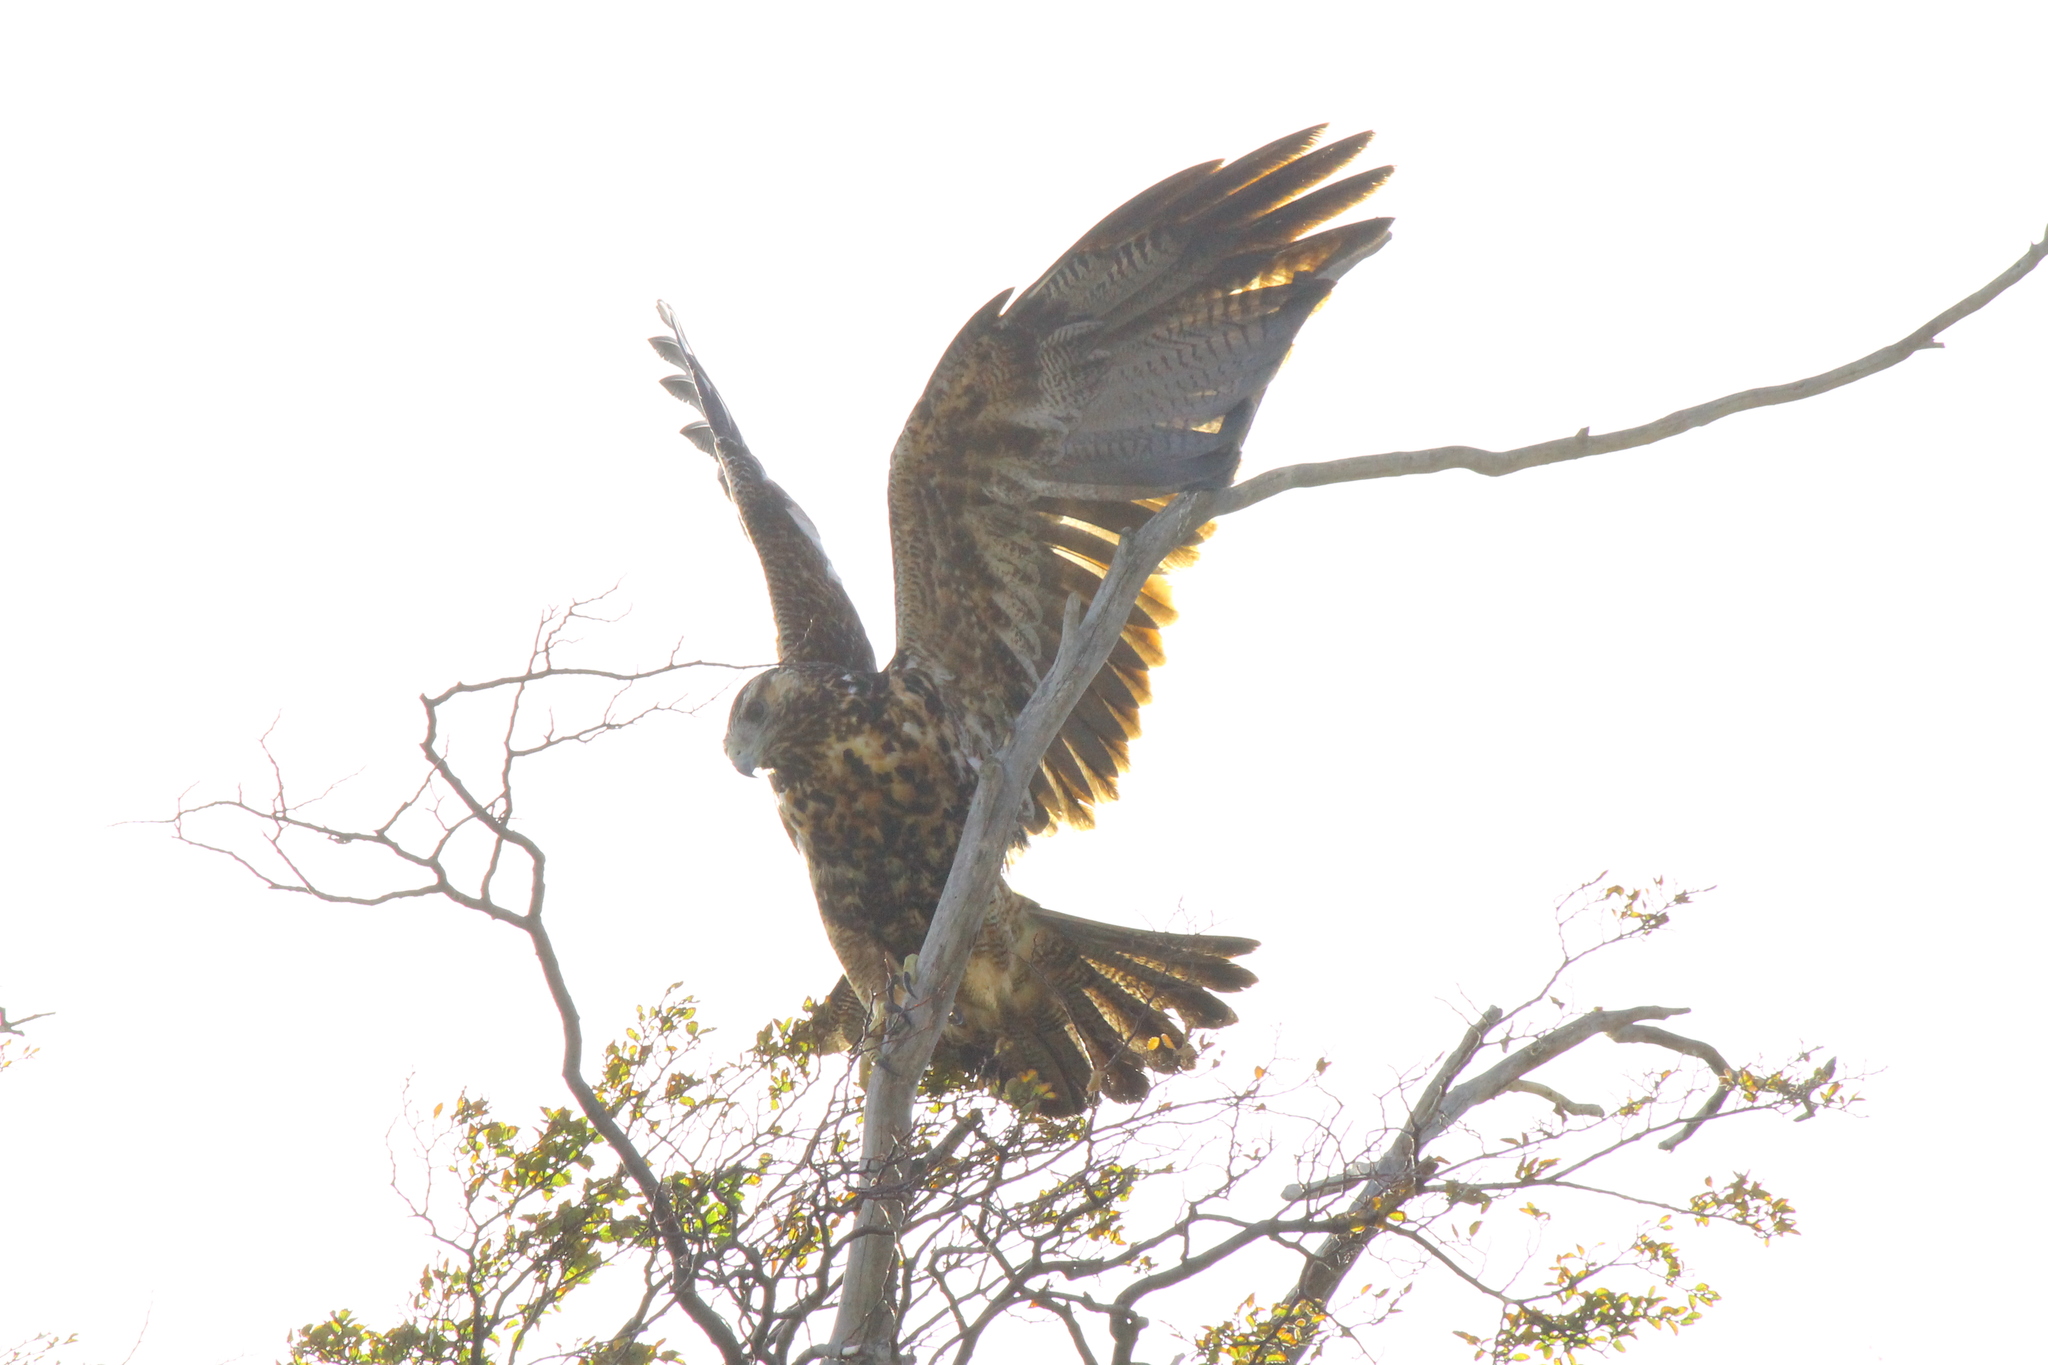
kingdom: Animalia
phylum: Chordata
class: Aves
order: Accipitriformes
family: Accipitridae
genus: Geranoaetus
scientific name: Geranoaetus melanoleucus
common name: Black-chested buzzard-eagle
